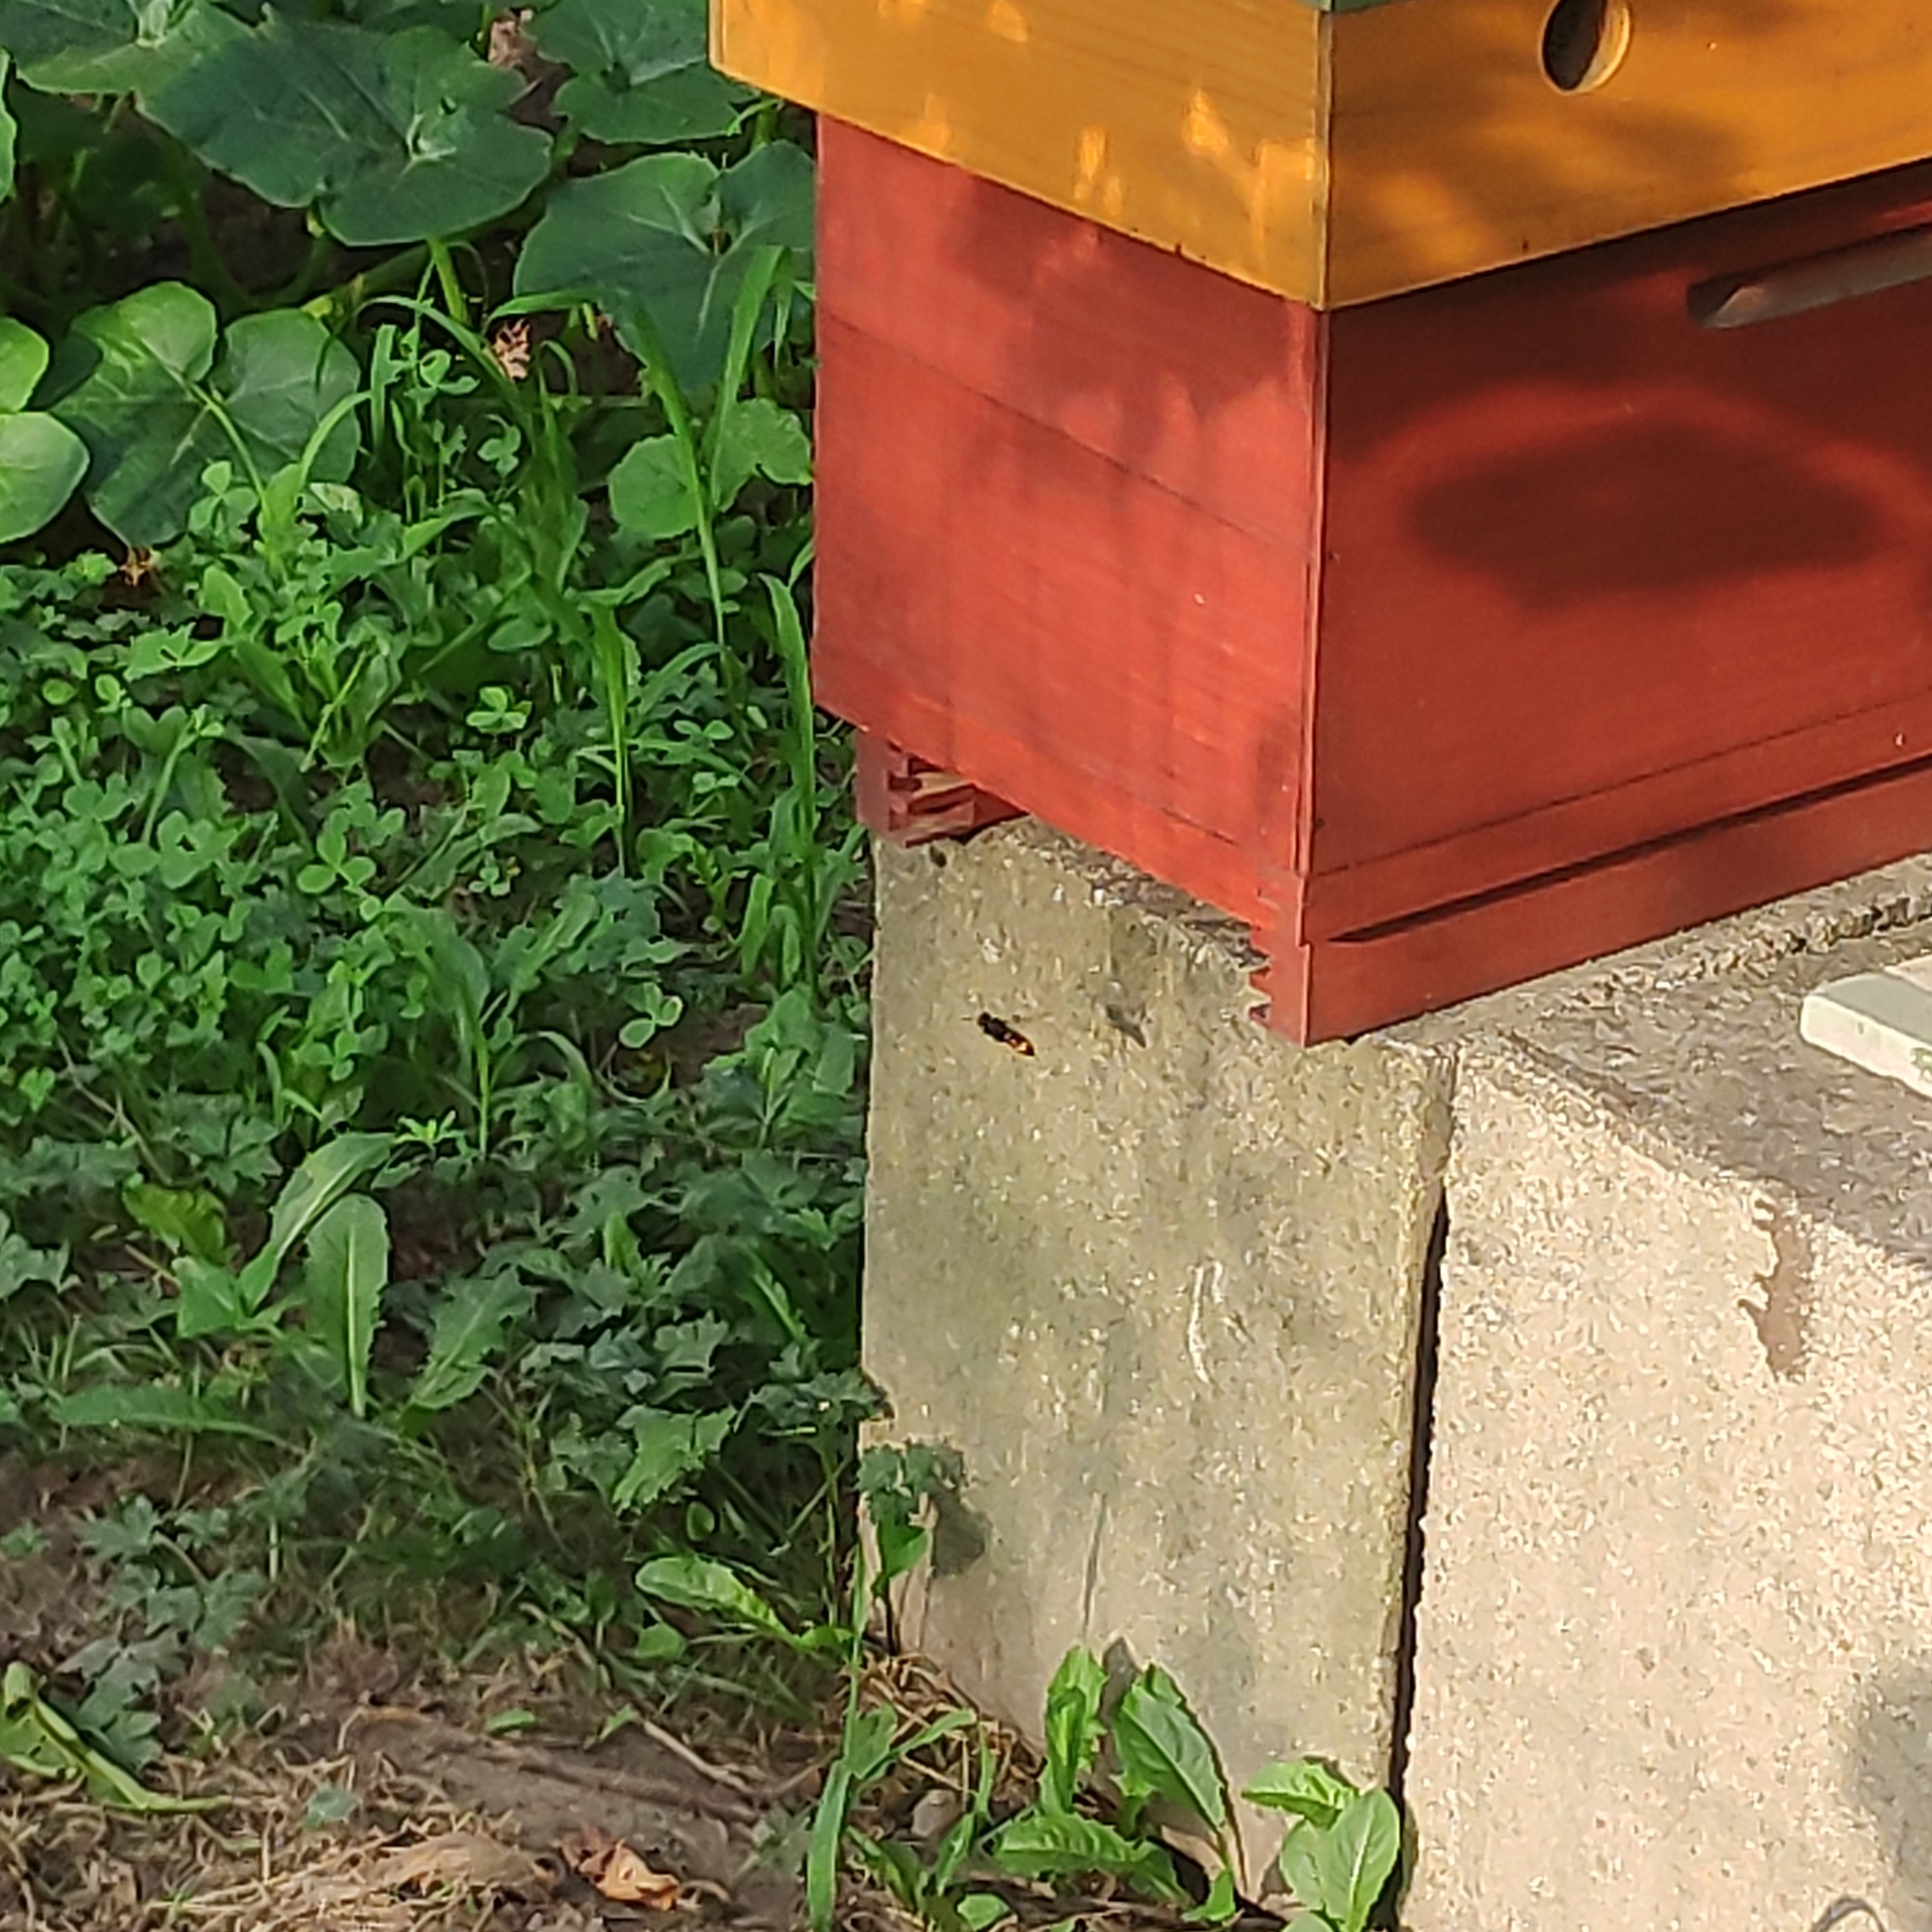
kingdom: Animalia
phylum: Arthropoda
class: Insecta
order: Hymenoptera
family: Vespidae
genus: Vespa
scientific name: Vespa velutina
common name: Asian hornet
